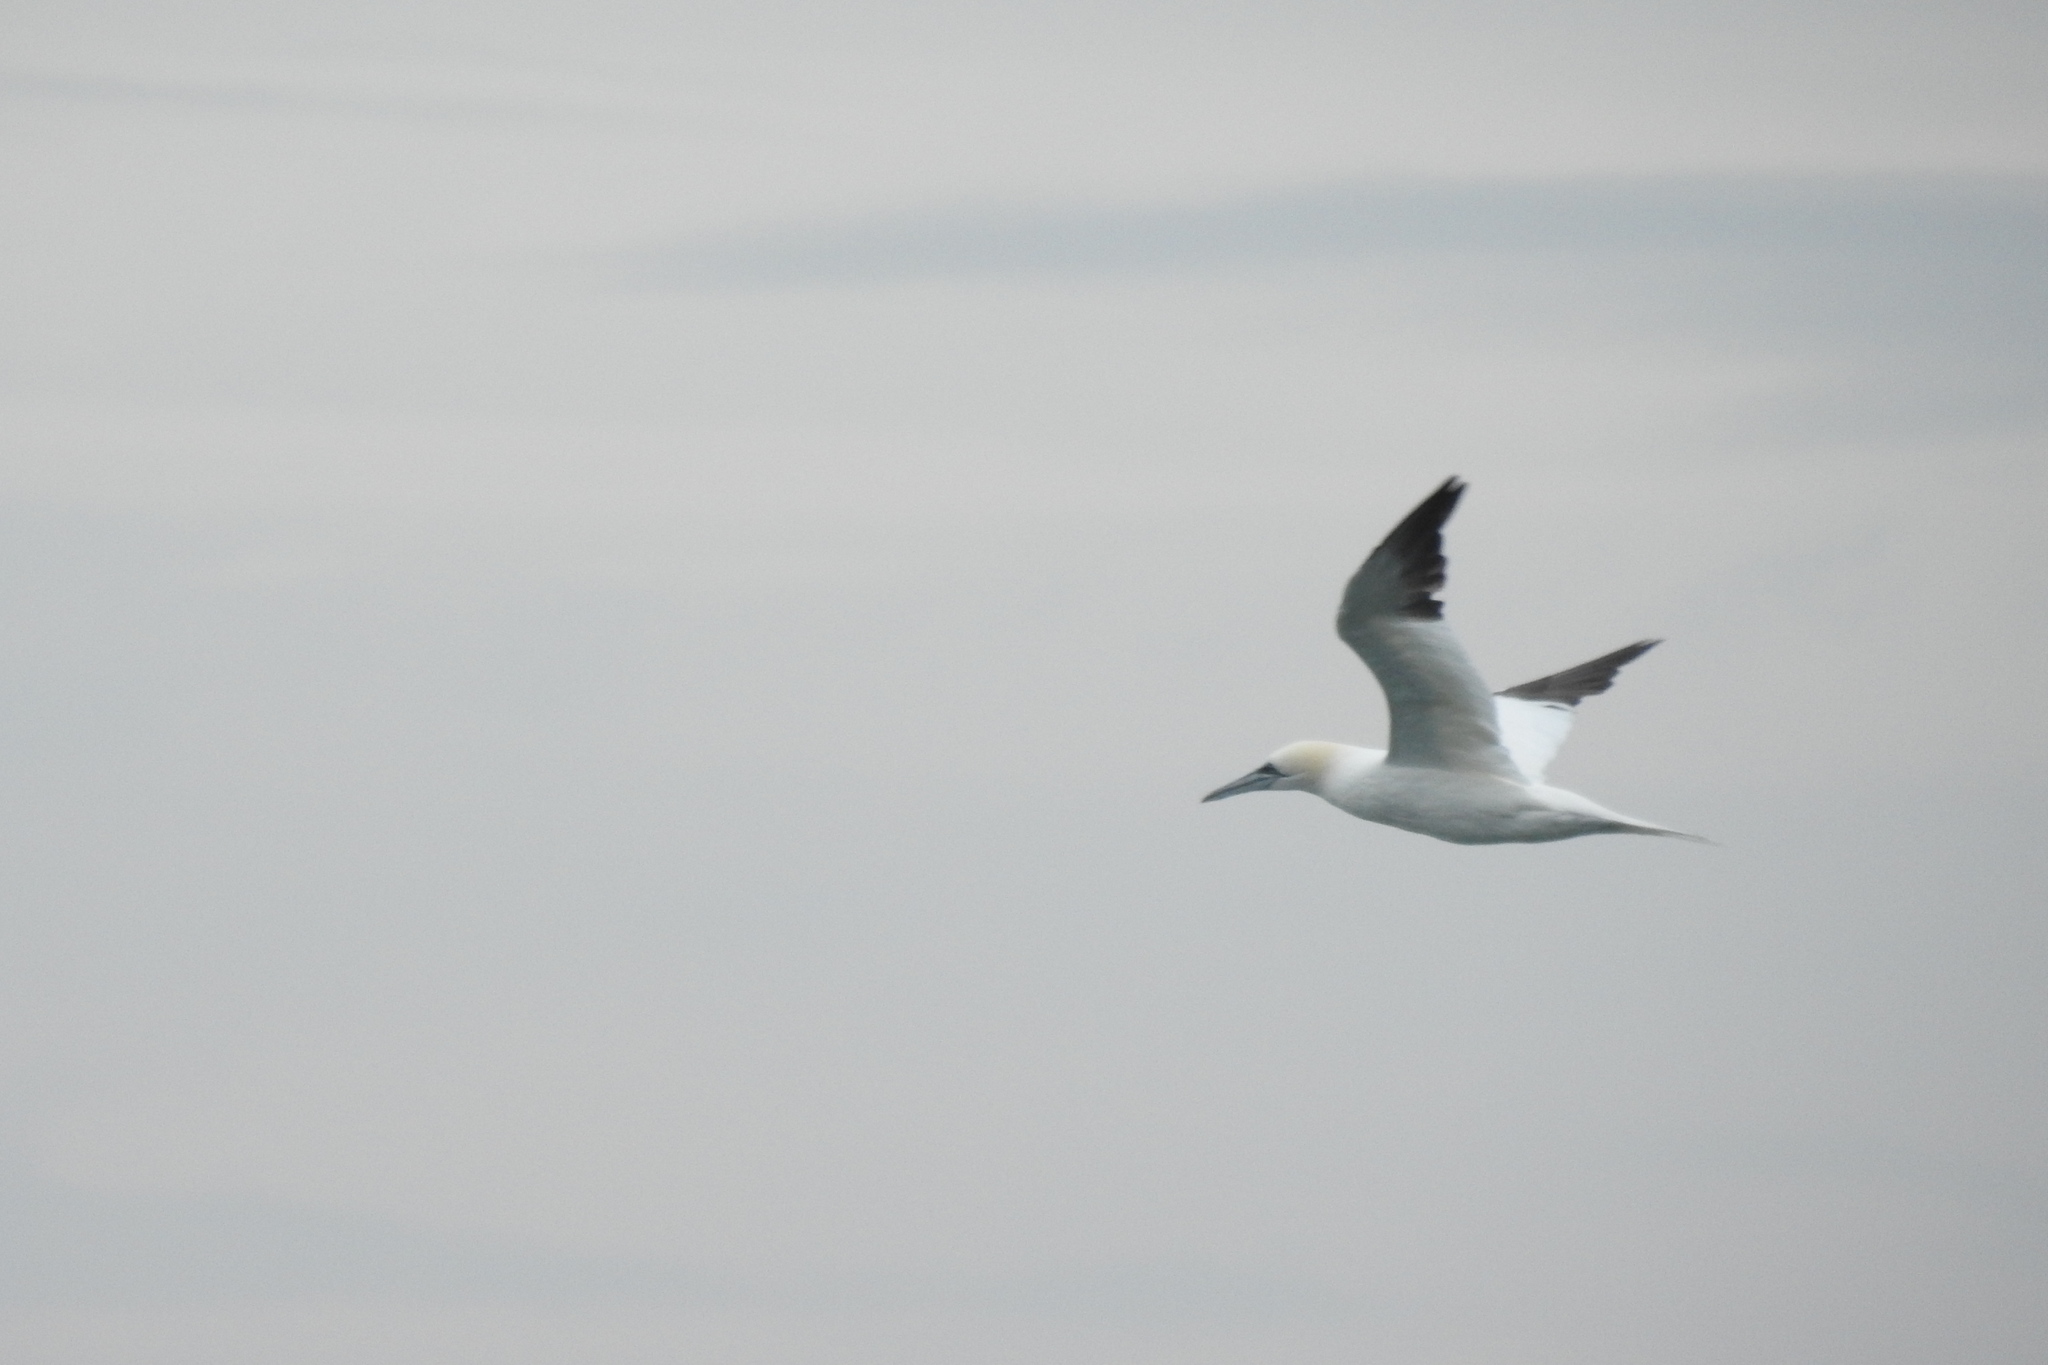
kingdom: Animalia
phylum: Chordata
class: Aves
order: Suliformes
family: Sulidae
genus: Morus
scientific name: Morus bassanus
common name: Northern gannet
